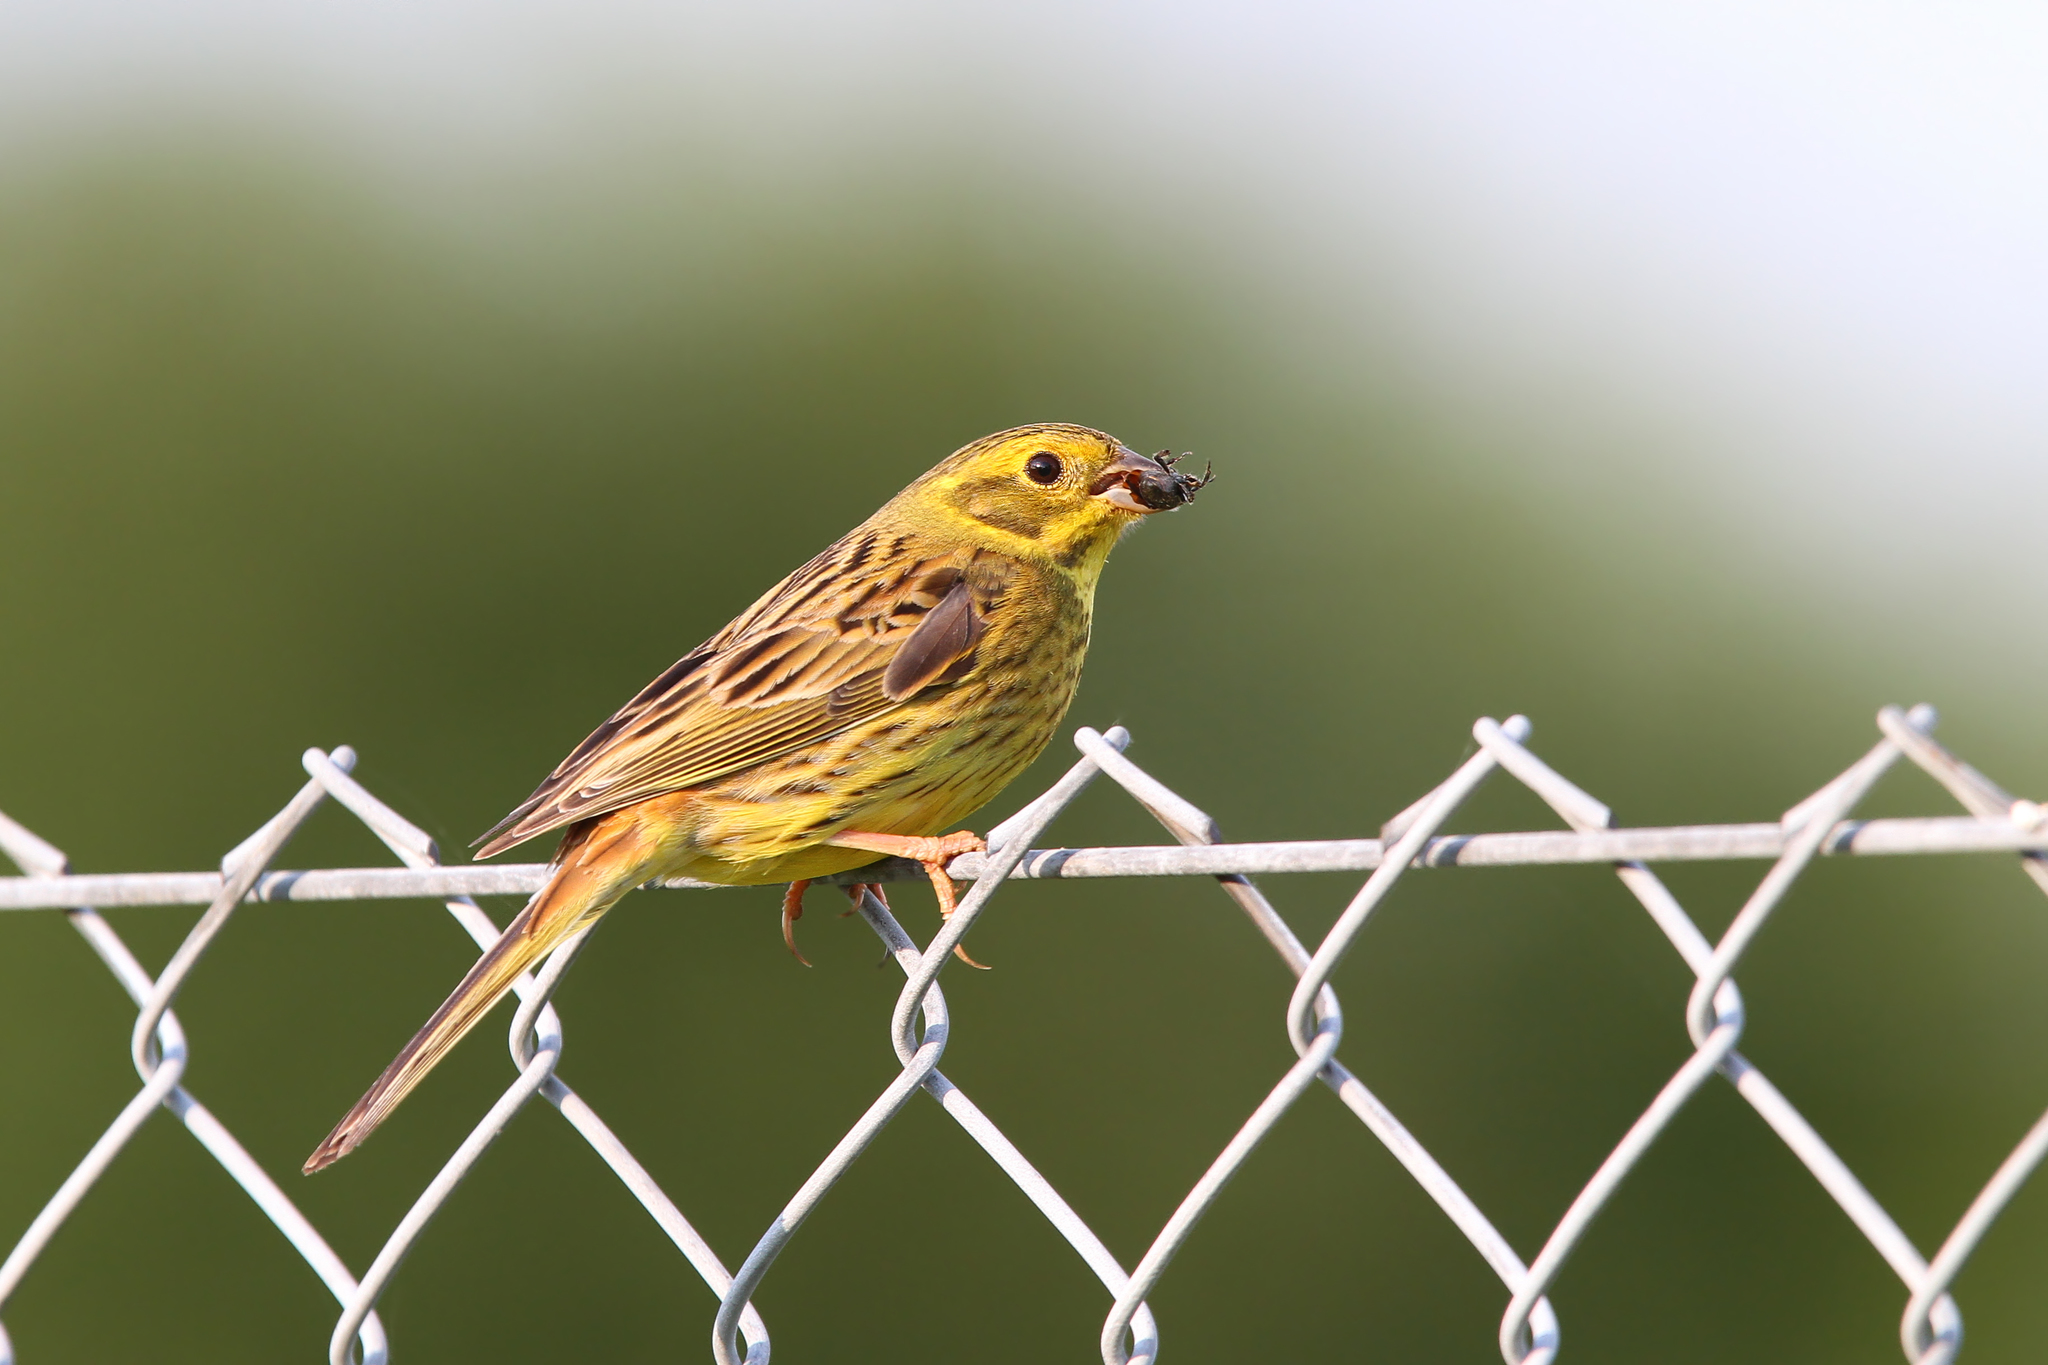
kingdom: Animalia
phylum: Chordata
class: Aves
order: Passeriformes
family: Emberizidae
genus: Emberiza
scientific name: Emberiza citrinella
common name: Yellowhammer
